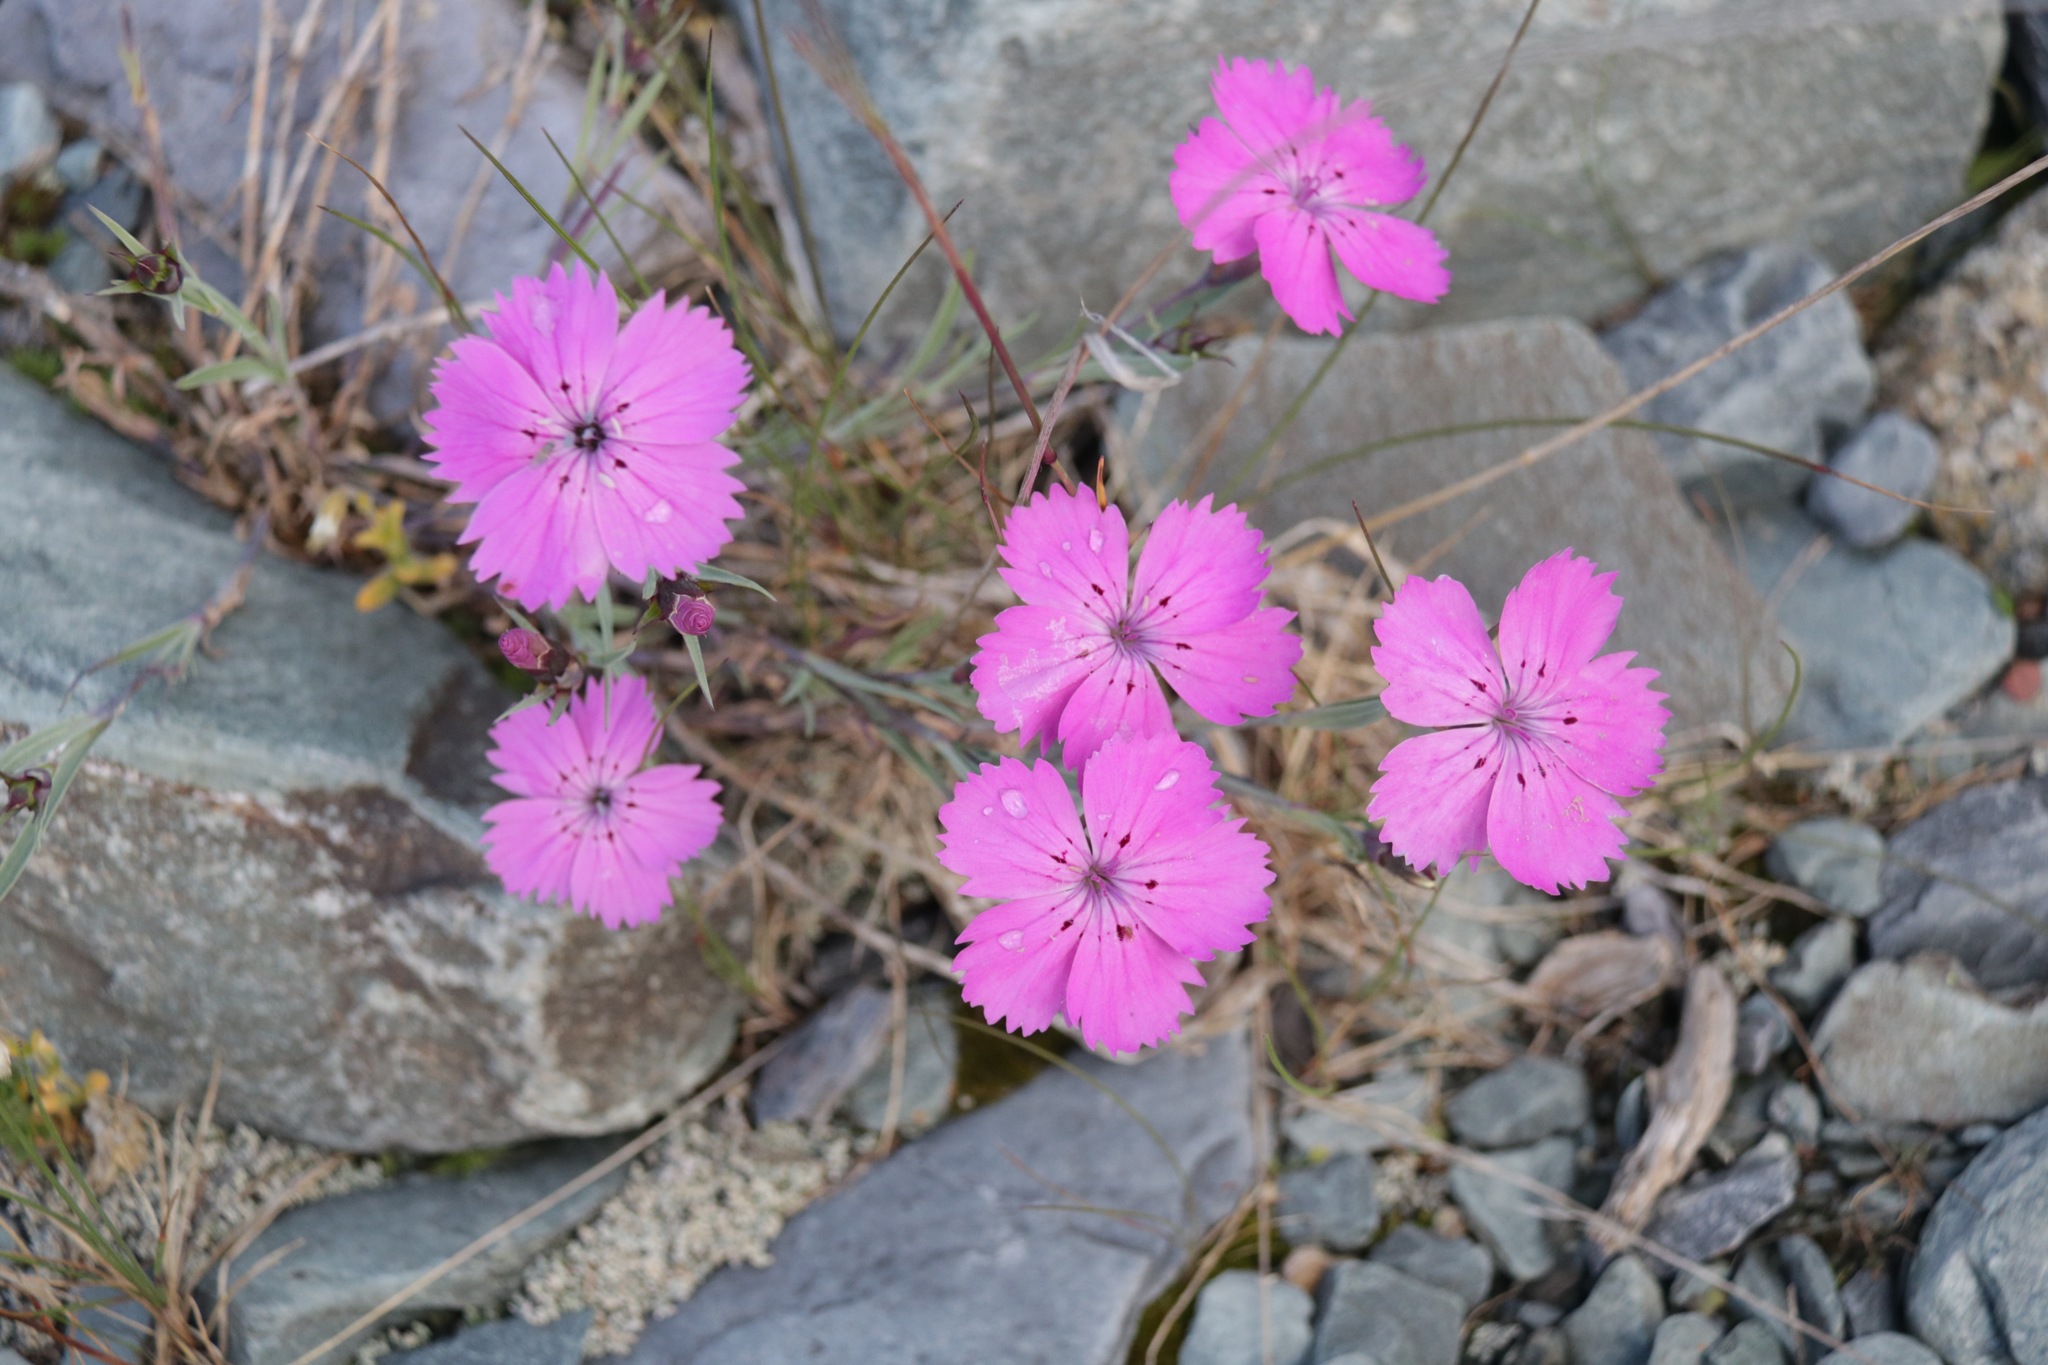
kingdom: Plantae
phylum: Tracheophyta
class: Magnoliopsida
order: Caryophyllales
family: Caryophyllaceae
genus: Dianthus
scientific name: Dianthus chinensis
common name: Rainbow pink
